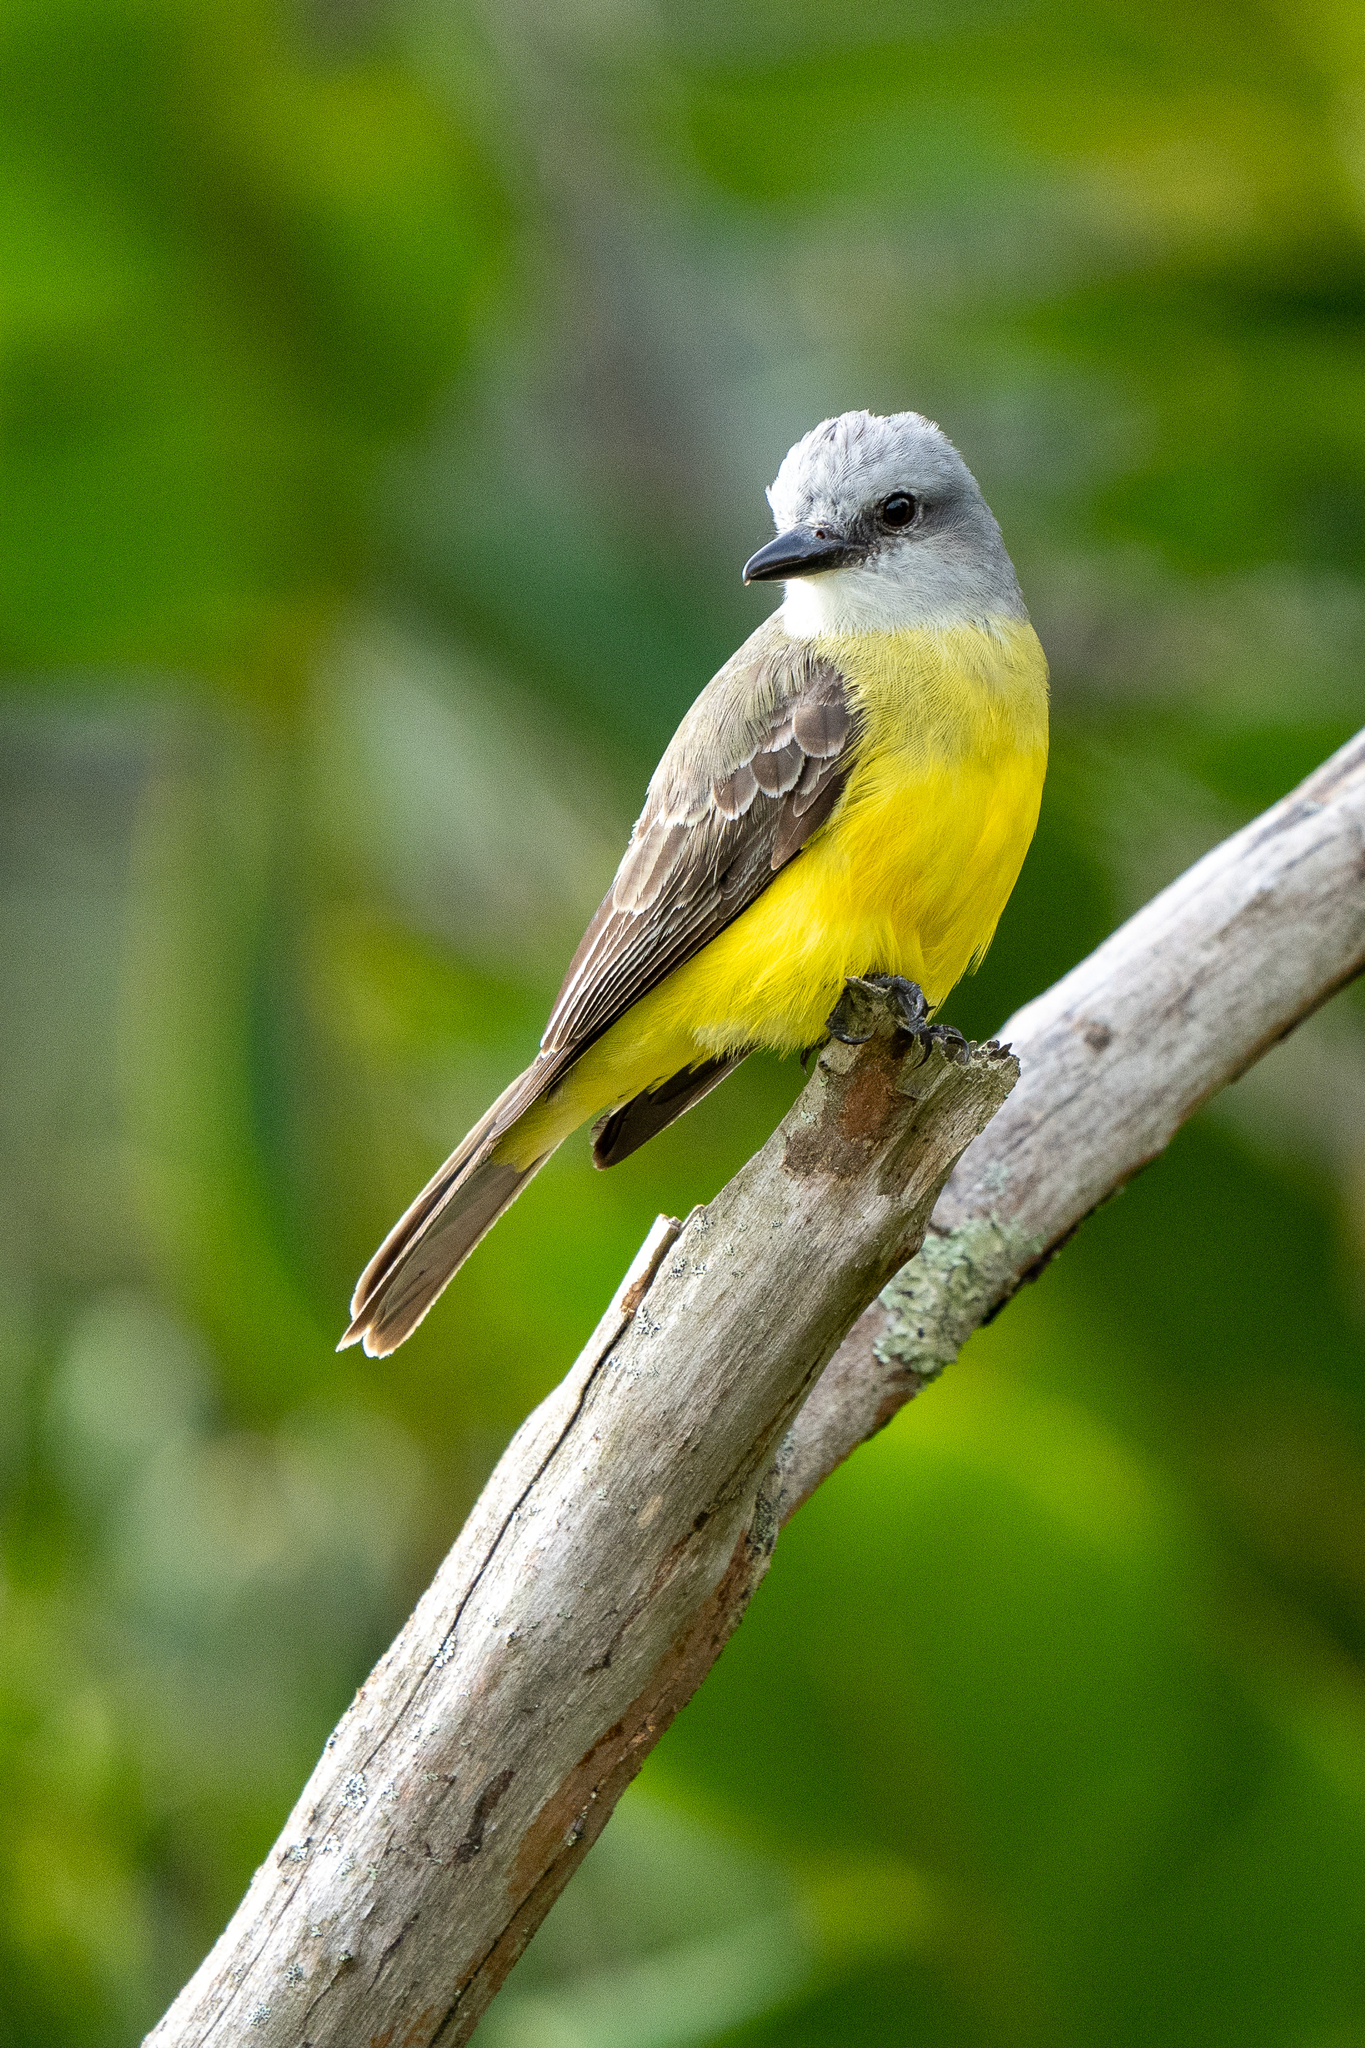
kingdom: Animalia
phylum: Chordata
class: Aves
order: Passeriformes
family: Tyrannidae
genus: Tyrannus
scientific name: Tyrannus melancholicus
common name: Tropical kingbird
